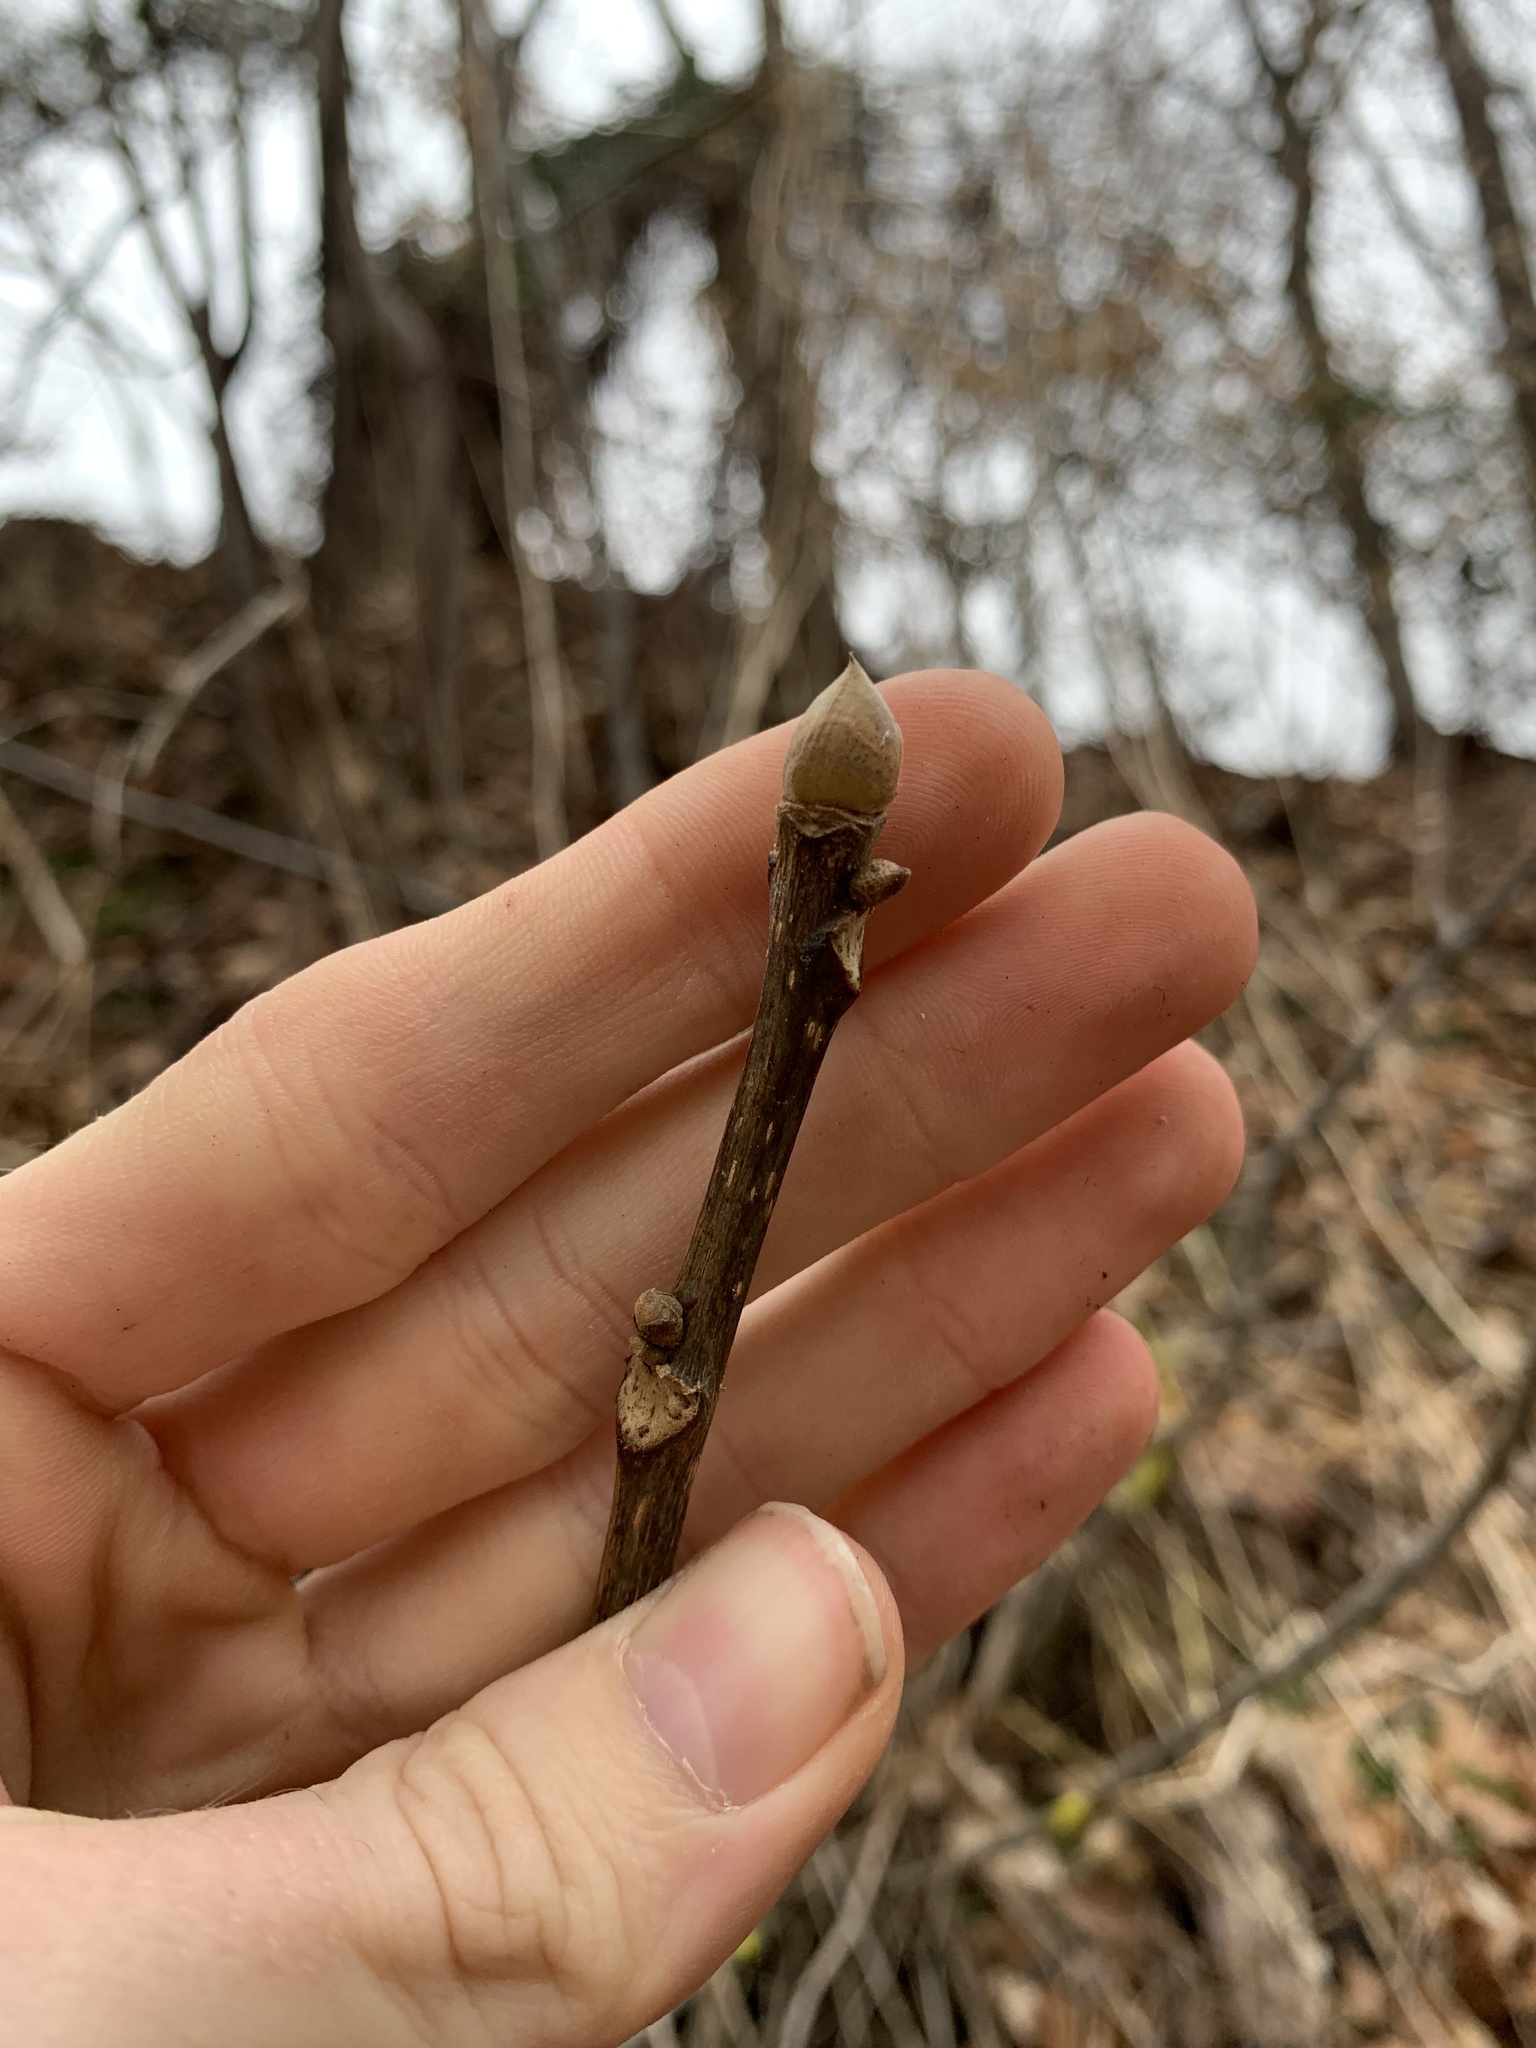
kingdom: Plantae
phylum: Tracheophyta
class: Magnoliopsida
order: Fagales
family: Juglandaceae
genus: Carya
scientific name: Carya glabra
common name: Pignut hickory
